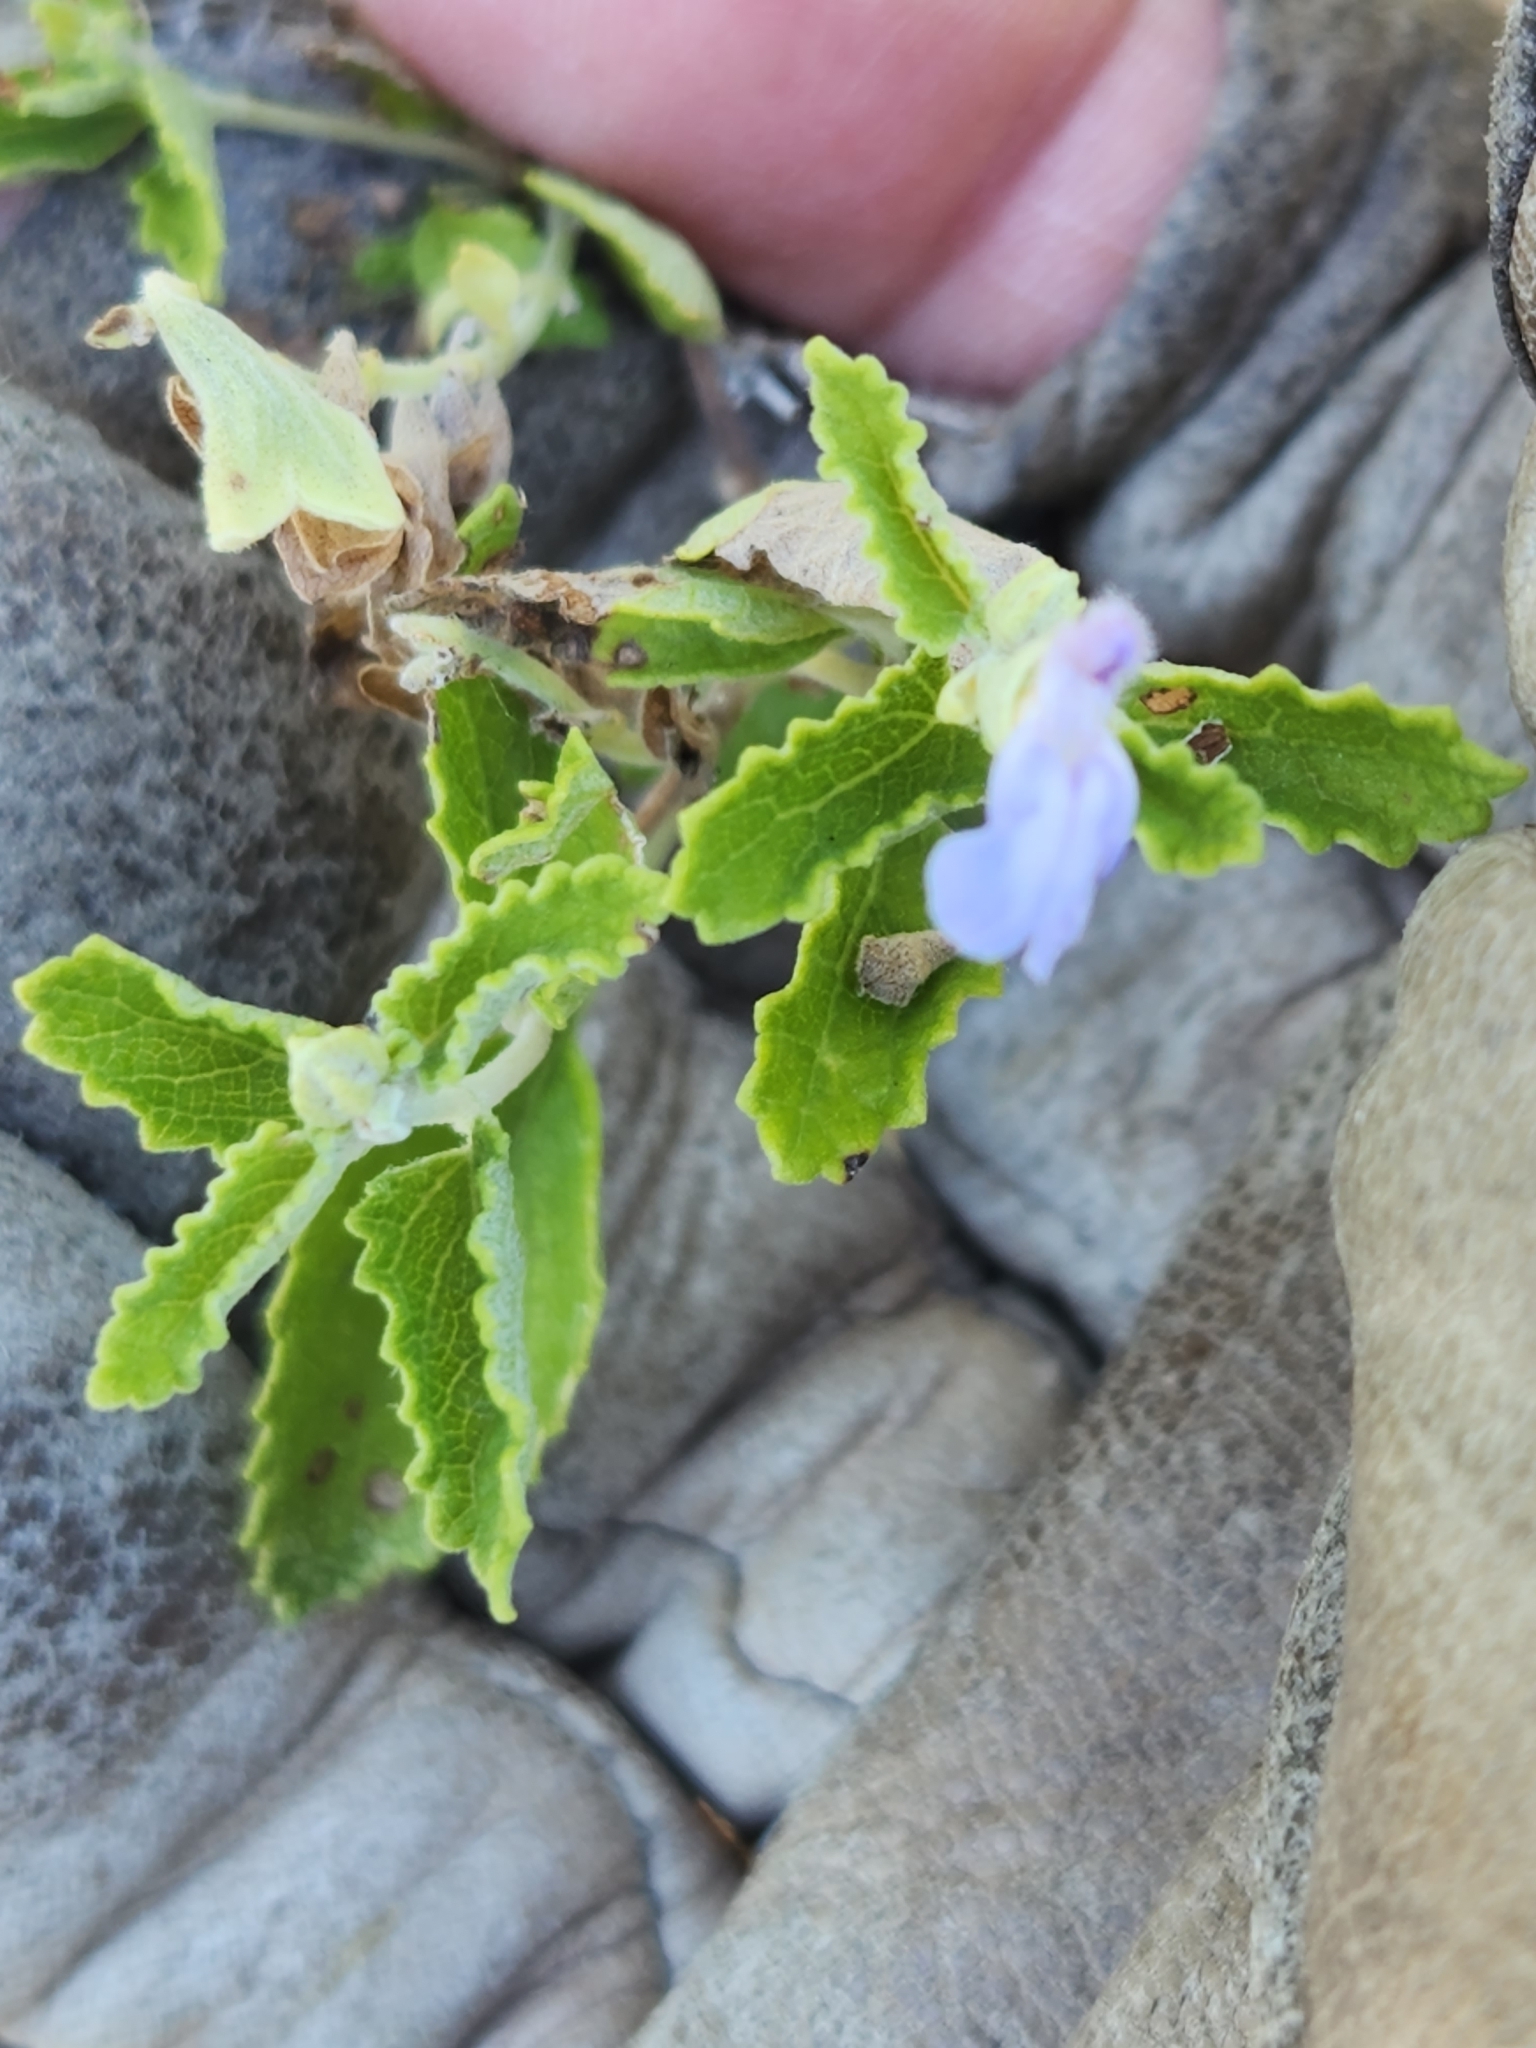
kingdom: Plantae
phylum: Tracheophyta
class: Magnoliopsida
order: Lamiales
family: Lamiaceae
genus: Salvia
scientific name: Salvia ballotiflora
